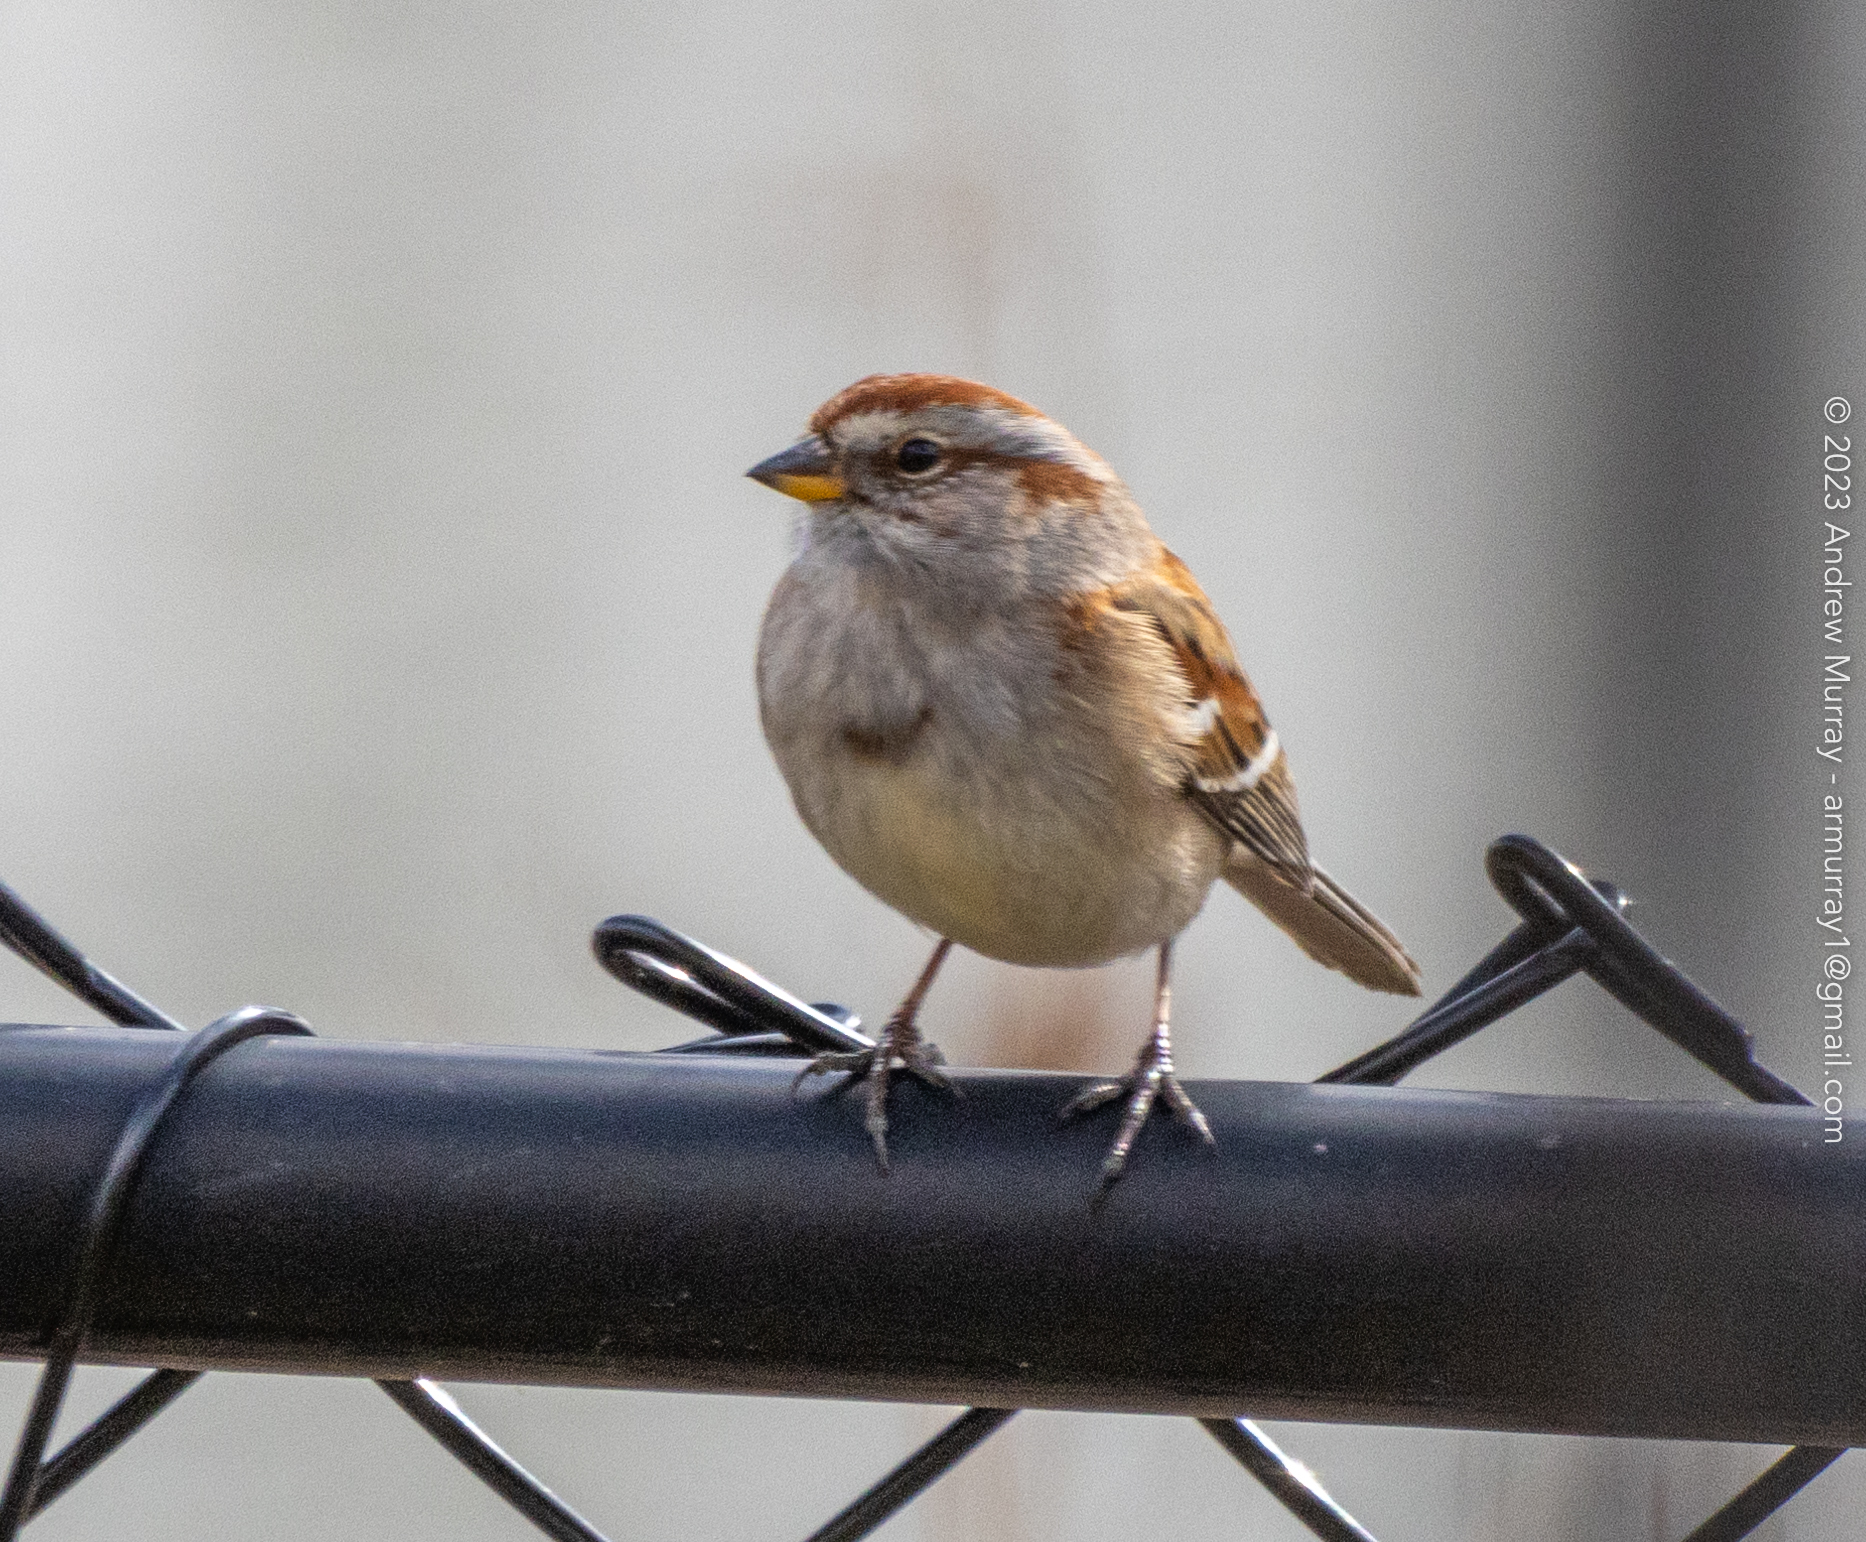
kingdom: Animalia
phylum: Chordata
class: Aves
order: Passeriformes
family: Passerellidae
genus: Spizelloides
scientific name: Spizelloides arborea
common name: American tree sparrow
